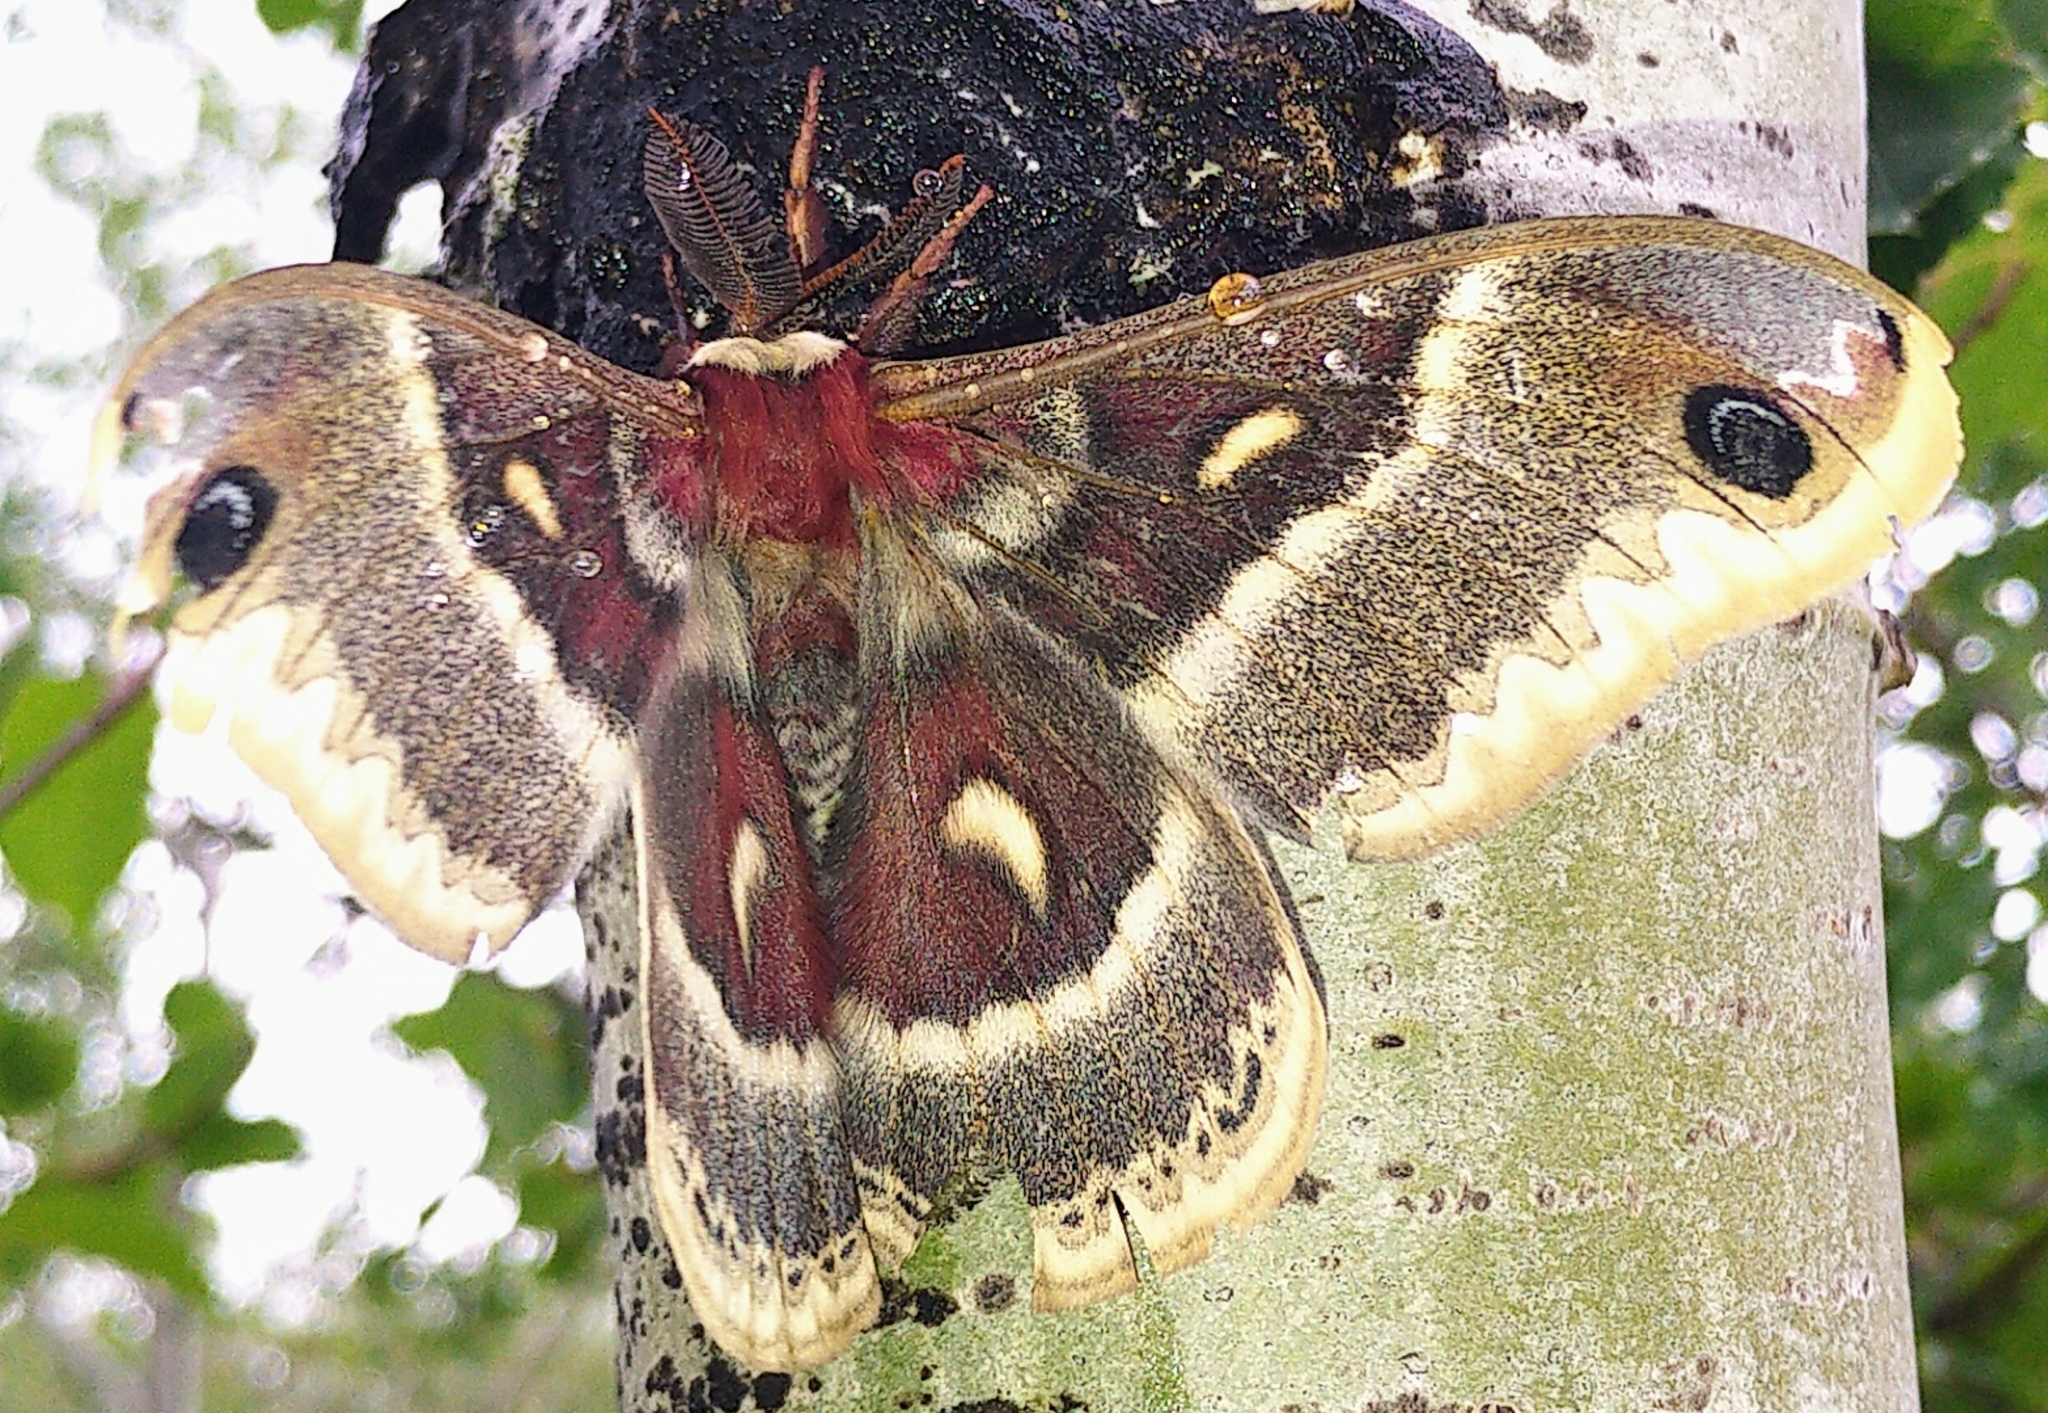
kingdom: Animalia
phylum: Arthropoda
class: Insecta
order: Lepidoptera
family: Saturniidae
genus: Hyalophora
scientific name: Hyalophora gloveri
